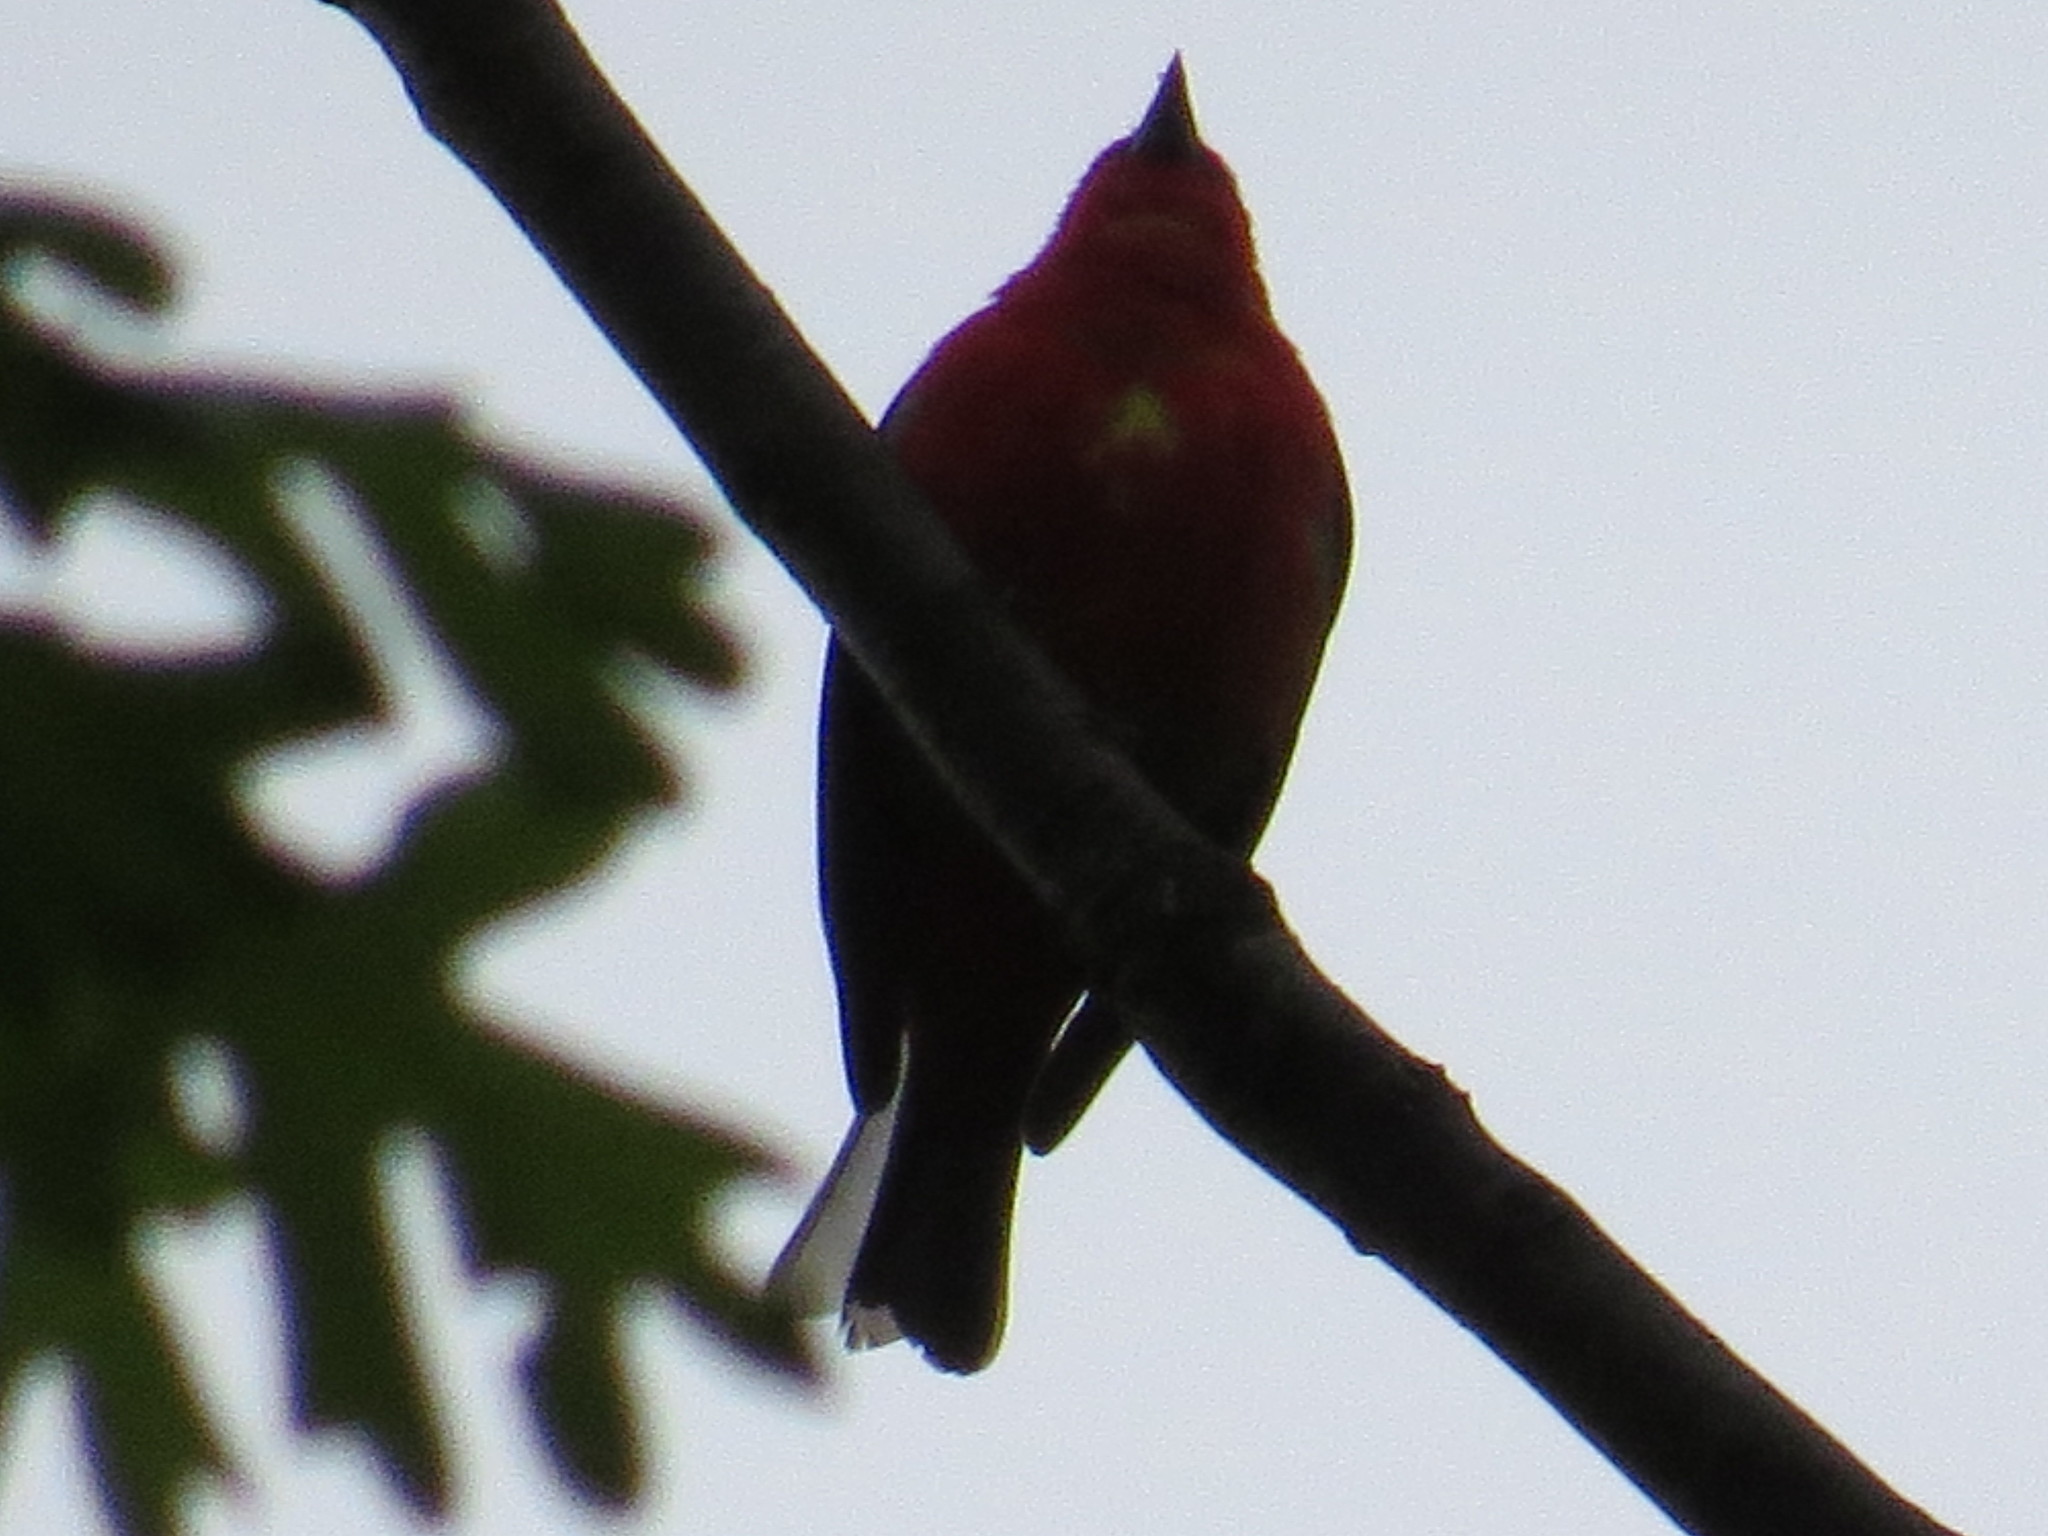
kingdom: Animalia
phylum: Chordata
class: Aves
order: Passeriformes
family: Cardinalidae
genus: Piranga
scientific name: Piranga olivacea
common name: Scarlet tanager
